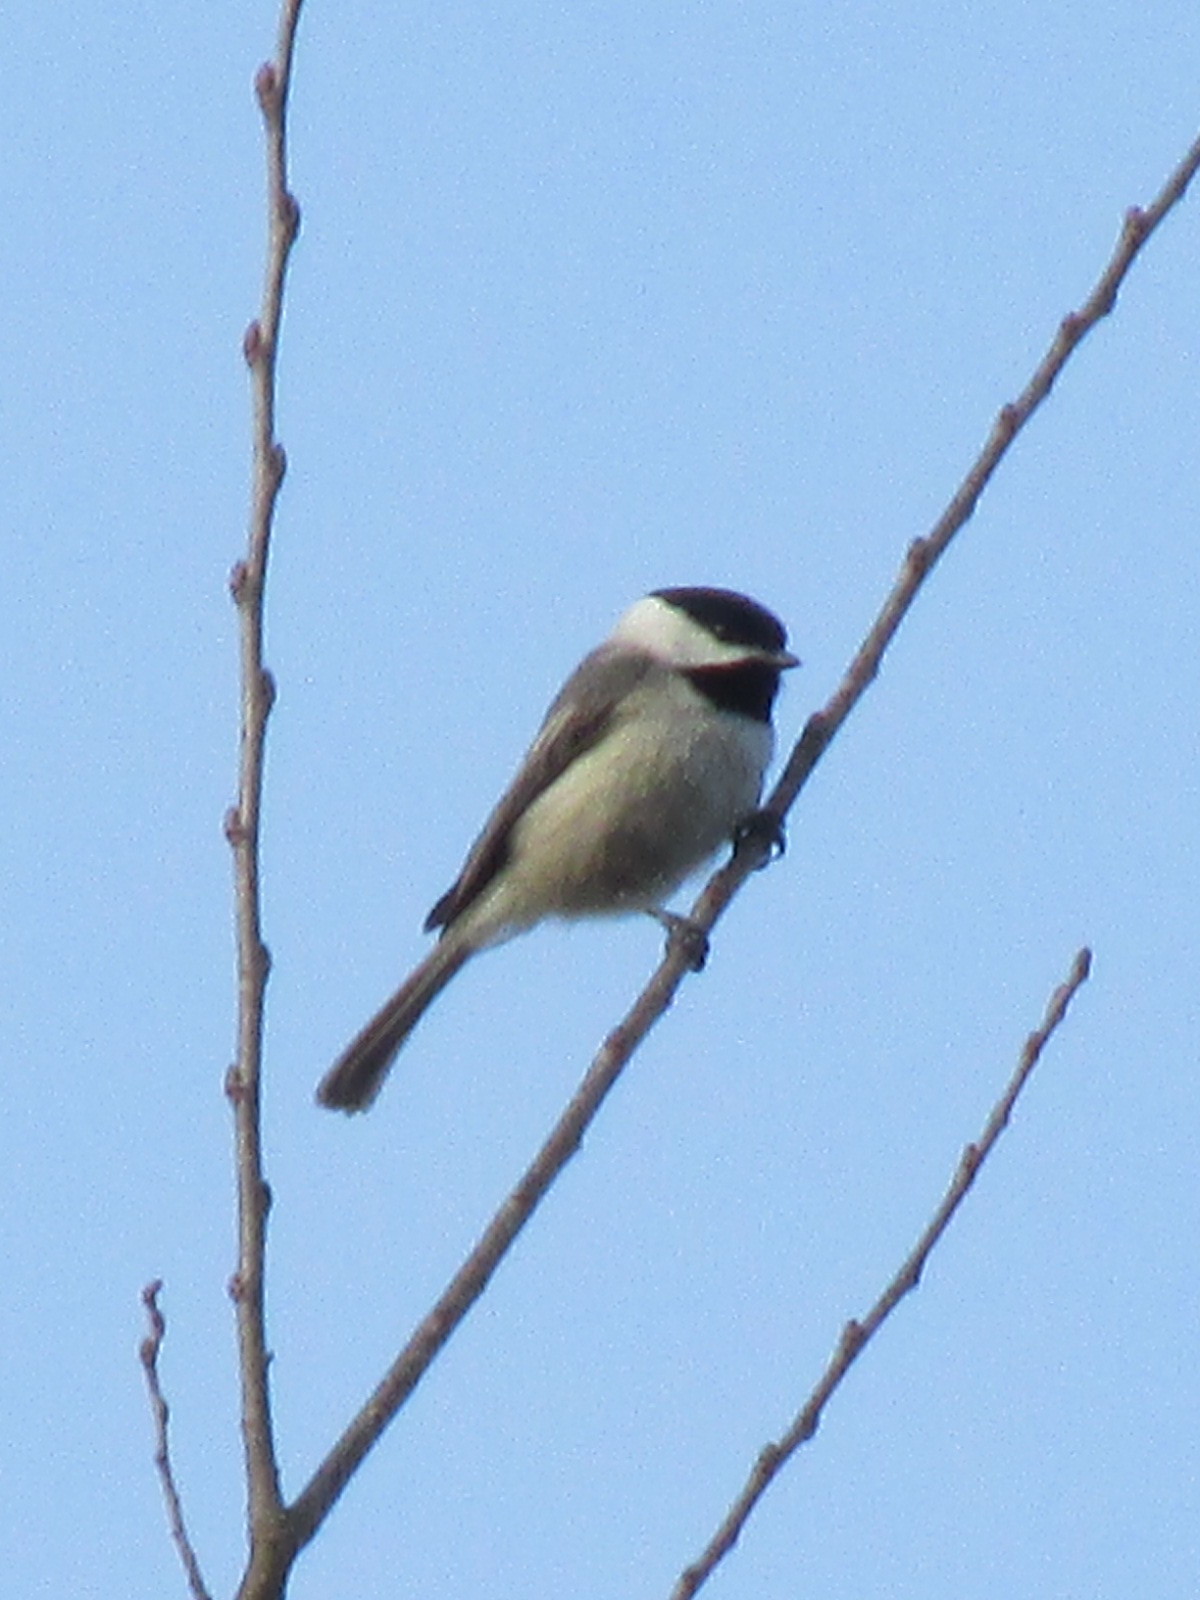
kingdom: Animalia
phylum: Chordata
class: Aves
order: Passeriformes
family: Paridae
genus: Poecile
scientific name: Poecile carolinensis
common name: Carolina chickadee
